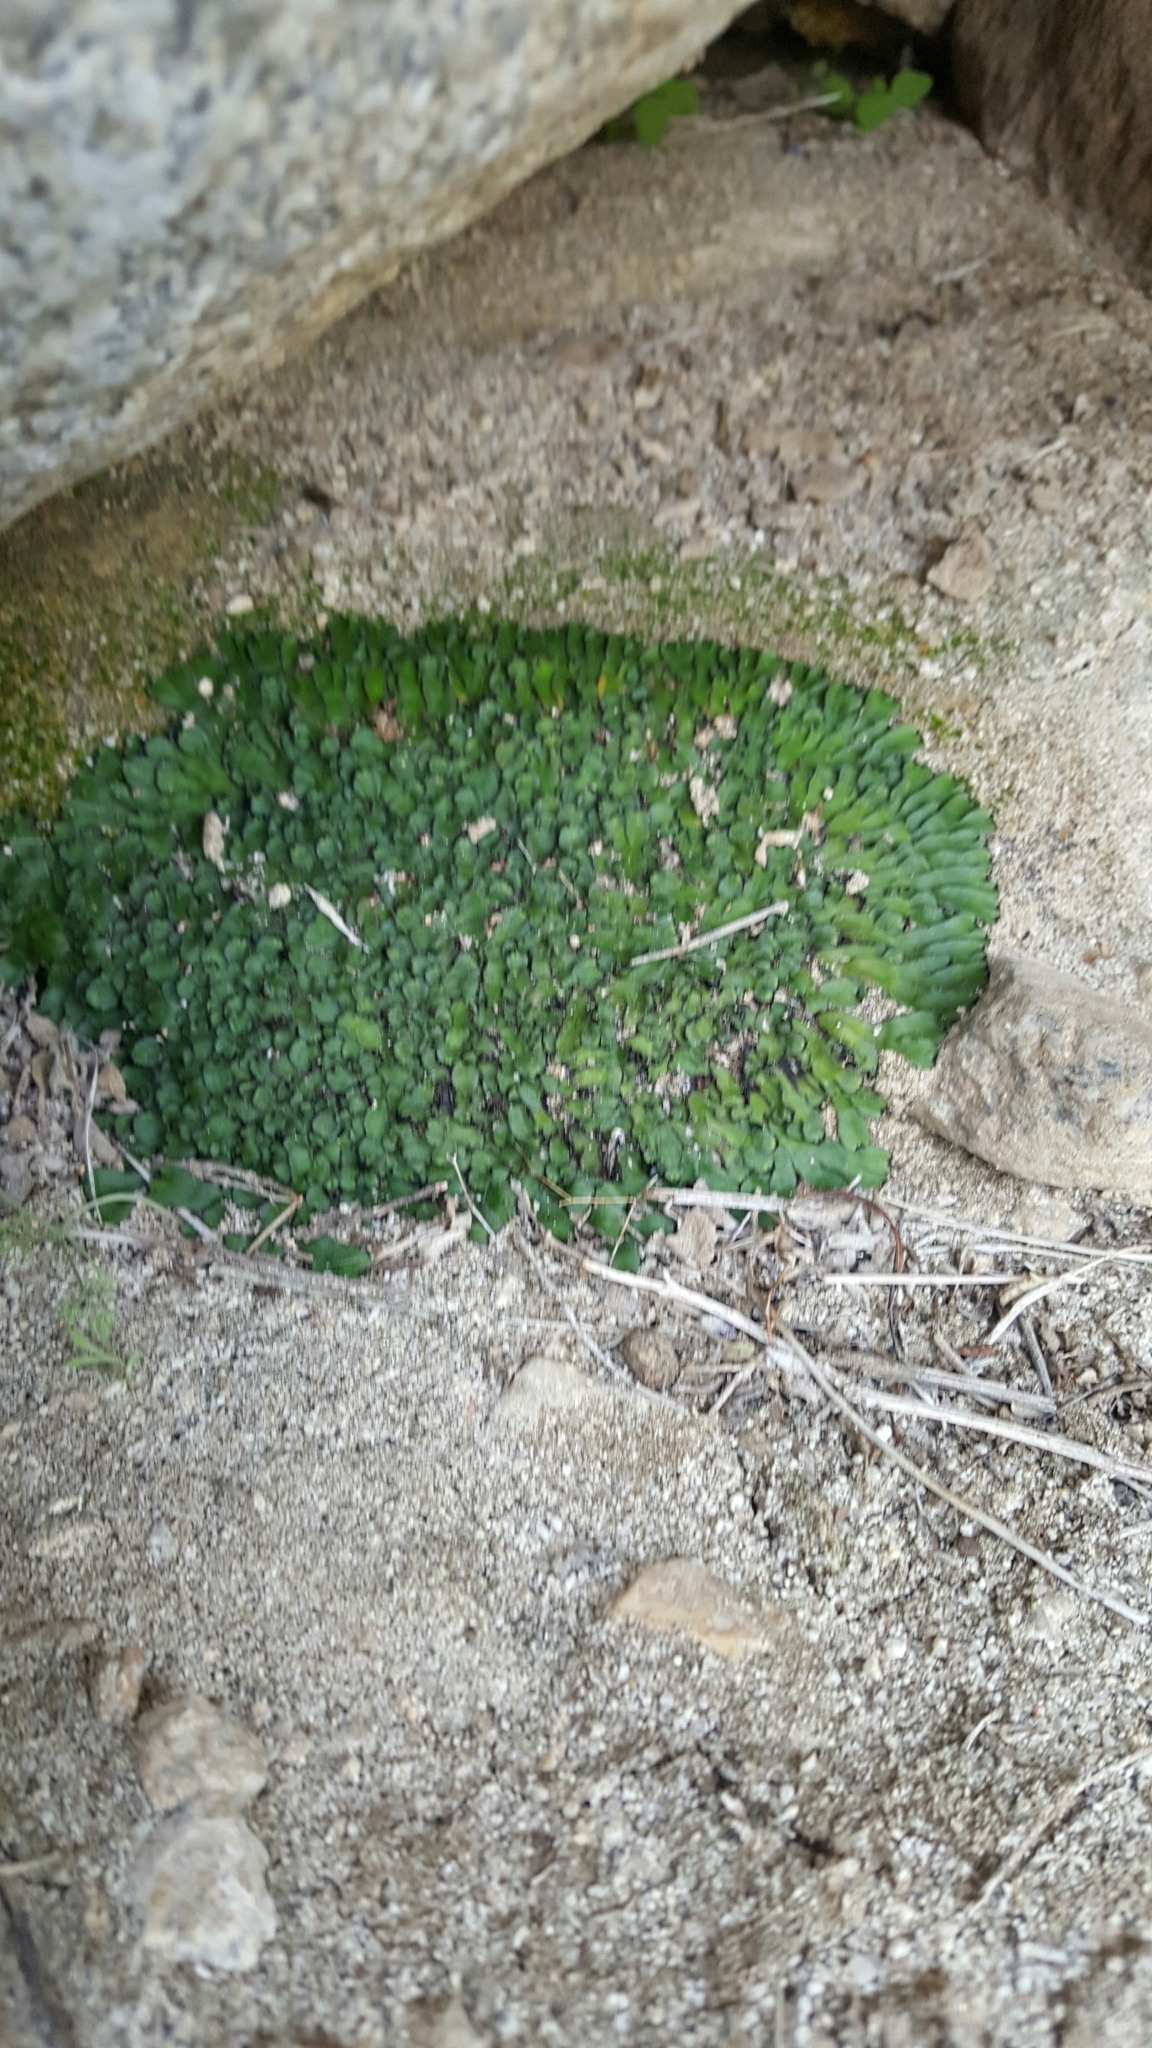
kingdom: Plantae
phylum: Marchantiophyta
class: Marchantiopsida
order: Marchantiales
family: Targioniaceae
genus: Targionia
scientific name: Targionia hypophylla
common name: Orobus-seed liverwort
